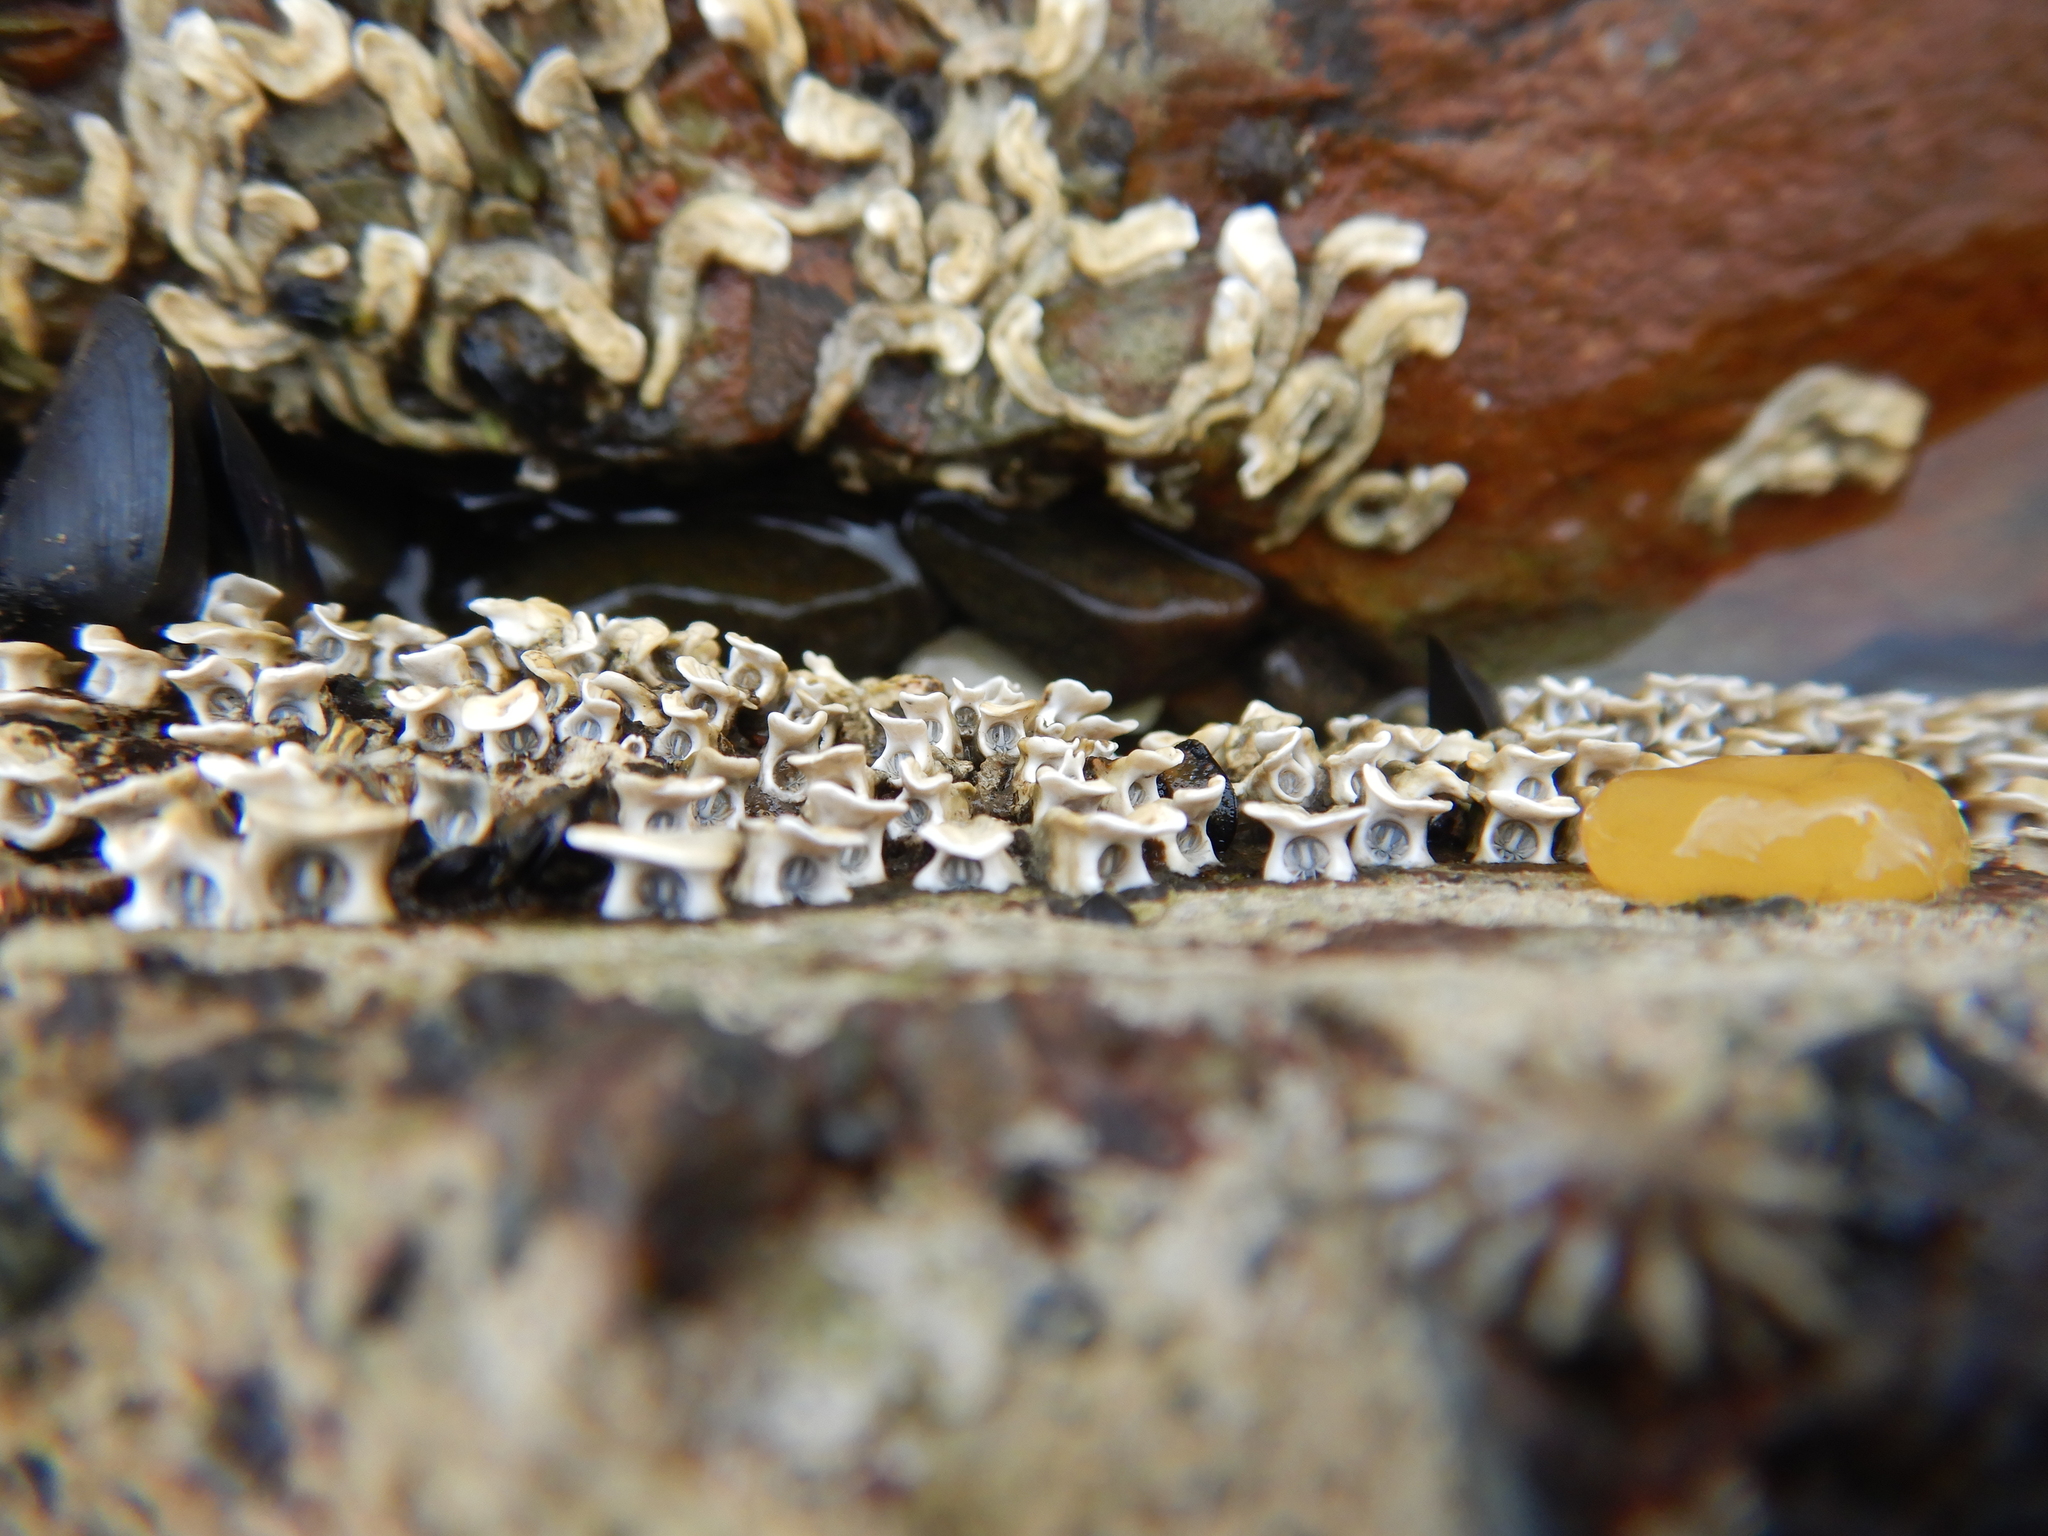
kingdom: Animalia
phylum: Annelida
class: Polychaeta
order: Sabellida
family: Serpulidae
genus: Galeolaria
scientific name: Galeolaria caespitosa
